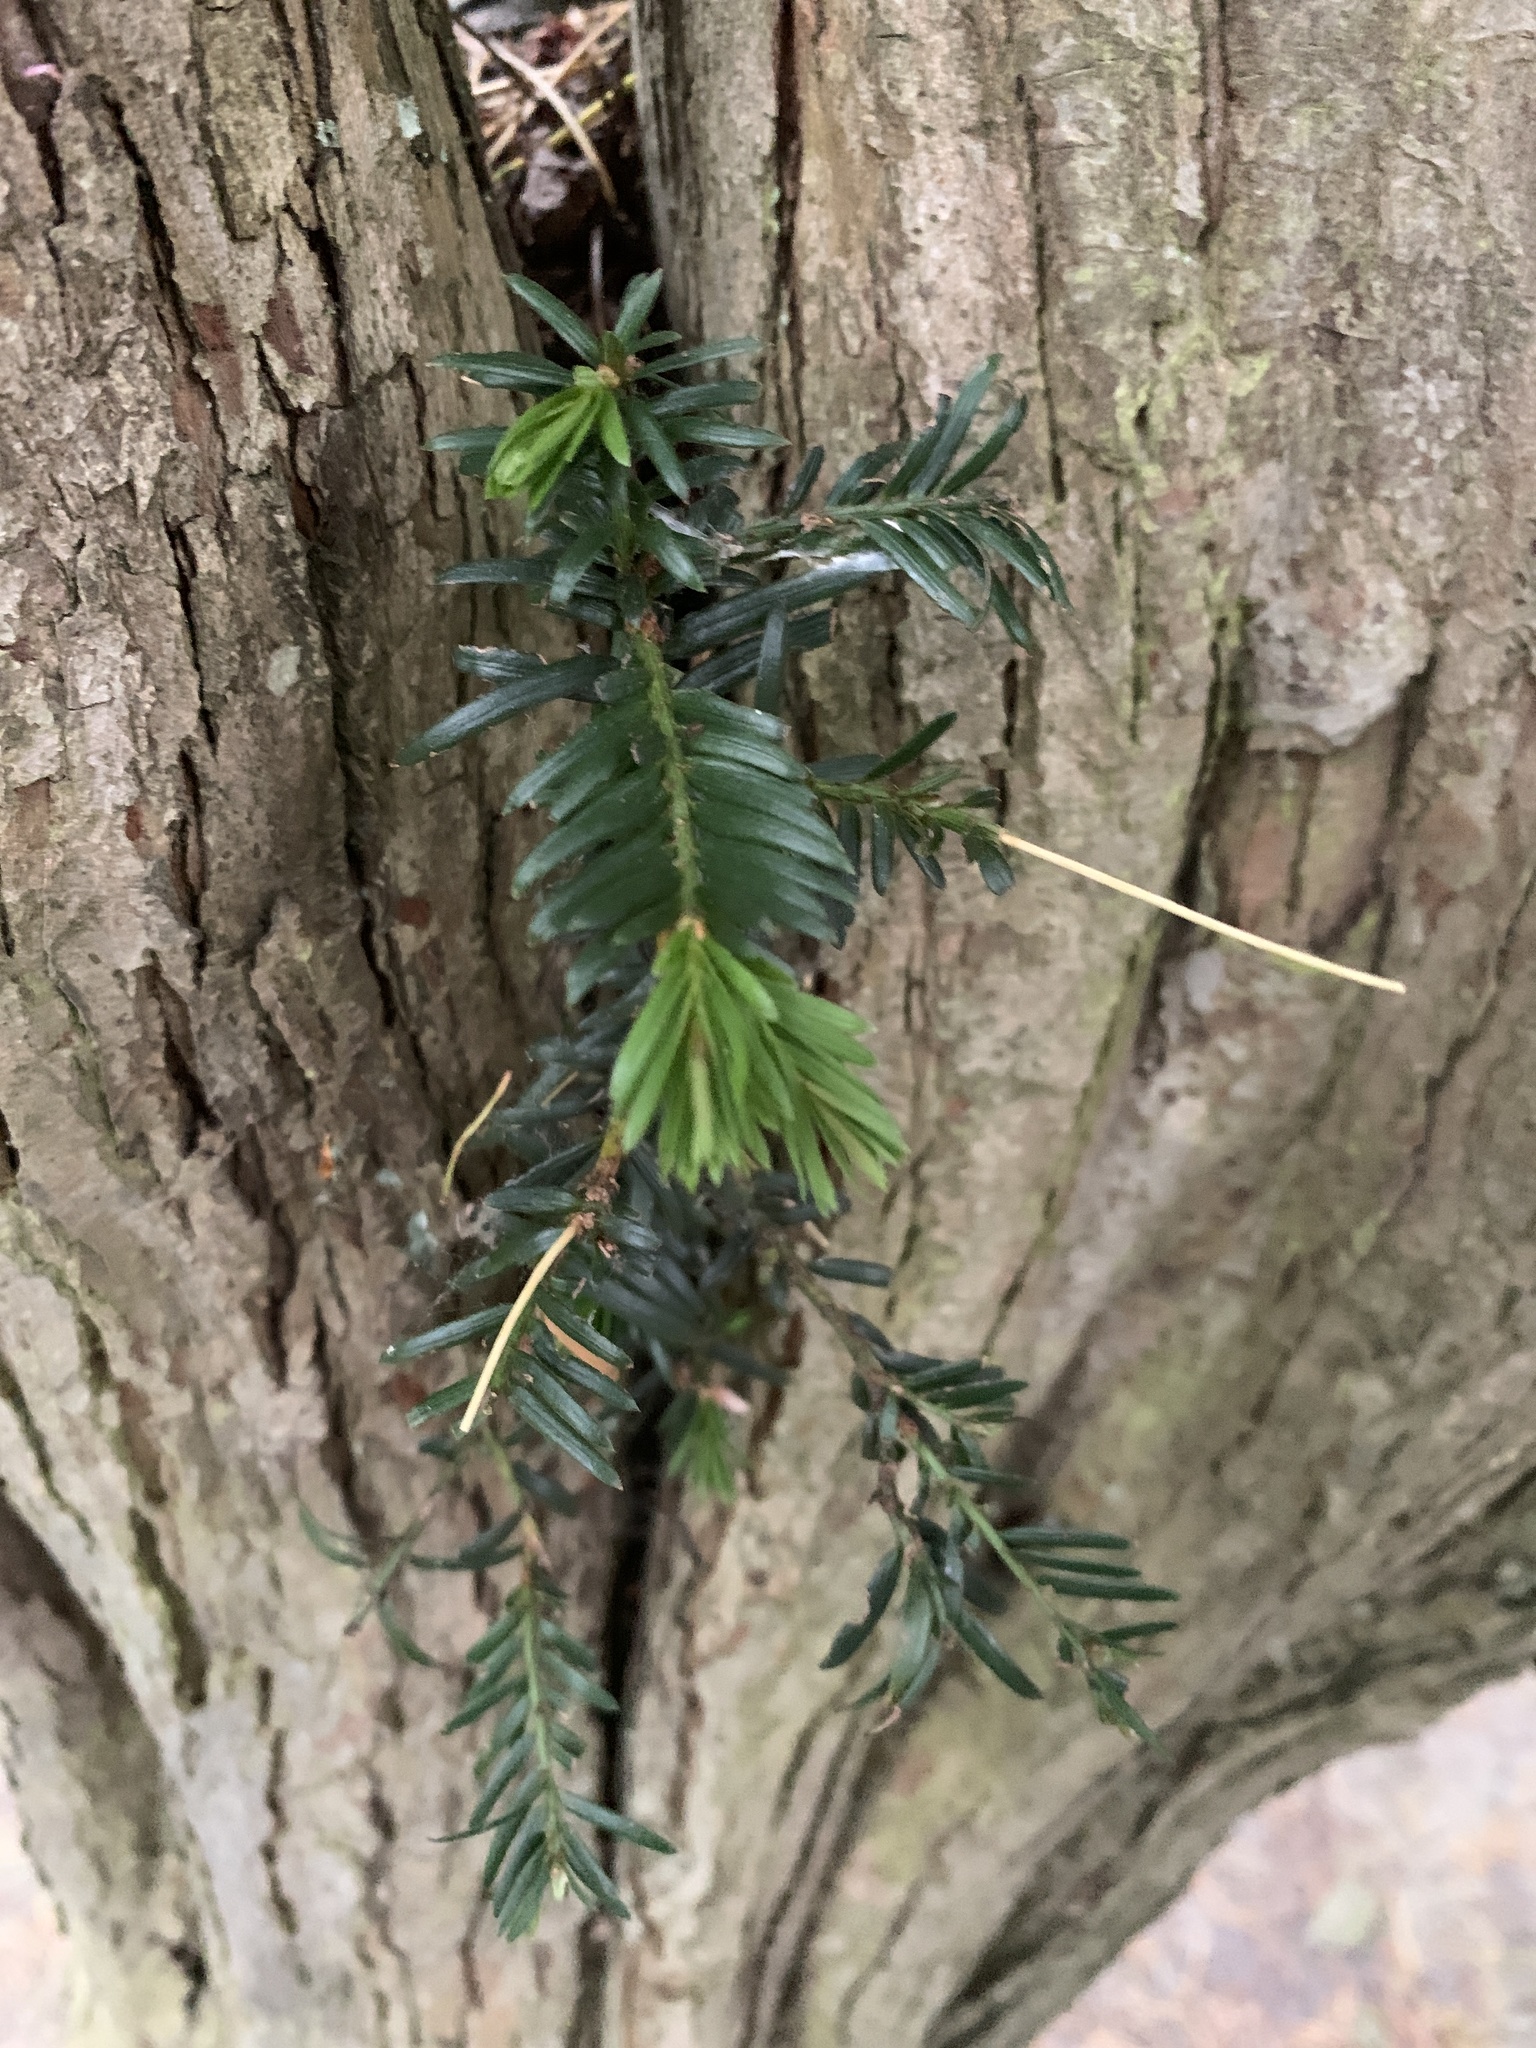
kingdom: Plantae
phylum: Tracheophyta
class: Pinopsida
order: Pinales
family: Taxaceae
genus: Taxus
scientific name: Taxus baccata
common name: Yew
